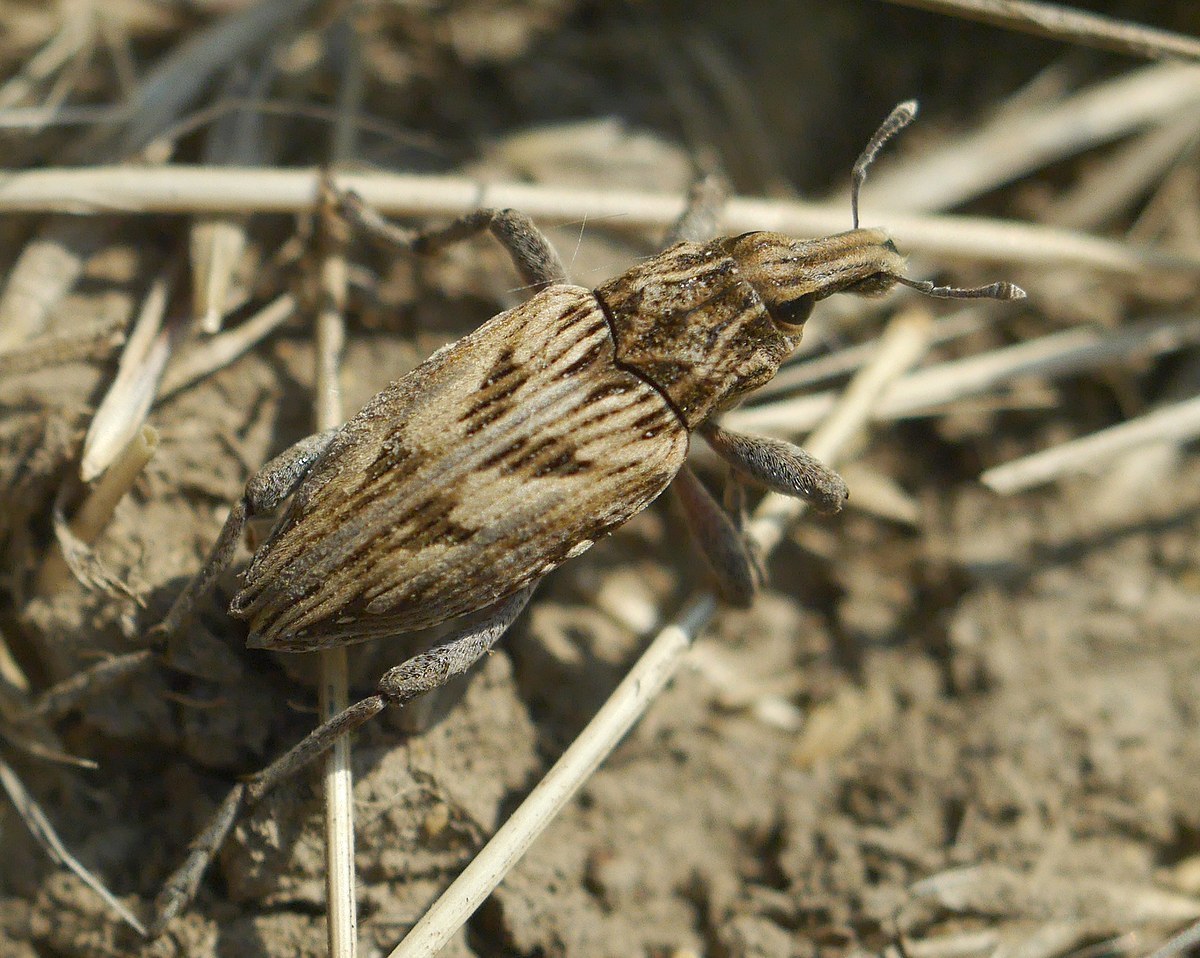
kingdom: Animalia
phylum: Arthropoda
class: Insecta
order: Coleoptera
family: Curculionidae
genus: Coniocleonus
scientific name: Coniocleonus nigrosuturatus
